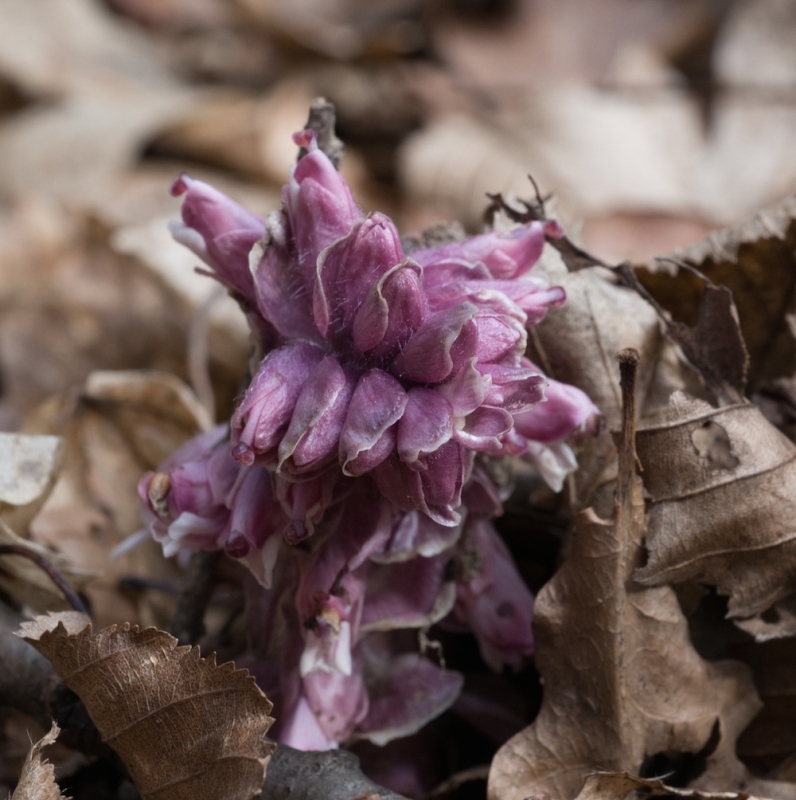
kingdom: Plantae
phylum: Tracheophyta
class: Magnoliopsida
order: Lamiales
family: Orobanchaceae
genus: Lathraea
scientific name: Lathraea squamaria
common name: Toothwort
